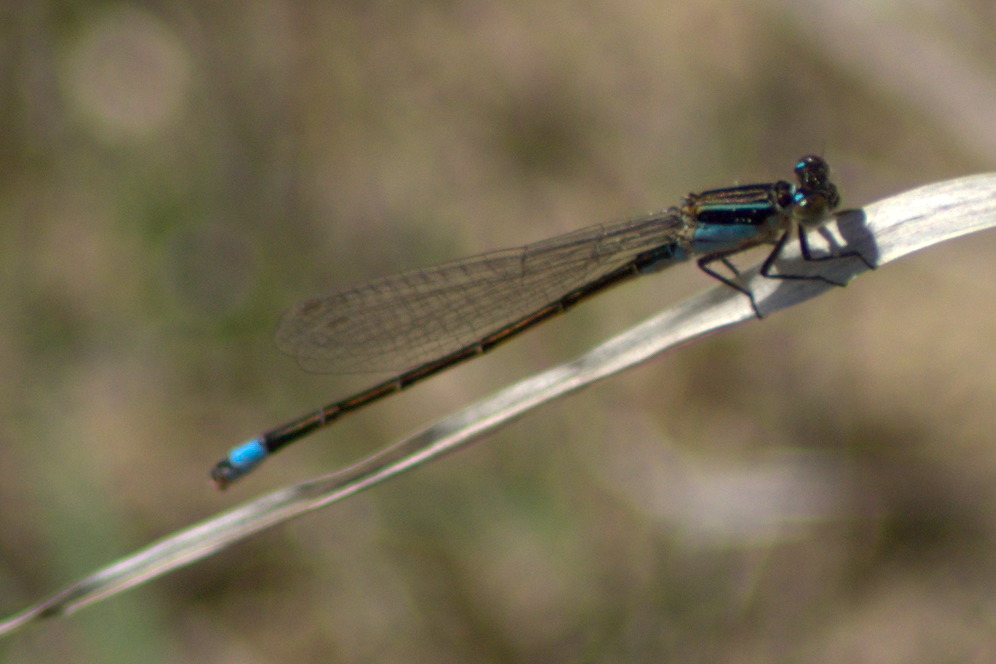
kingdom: Animalia
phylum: Arthropoda
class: Insecta
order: Odonata
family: Coenagrionidae
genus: Ischnura
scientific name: Ischnura ramburii
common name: Rambur's forktail
